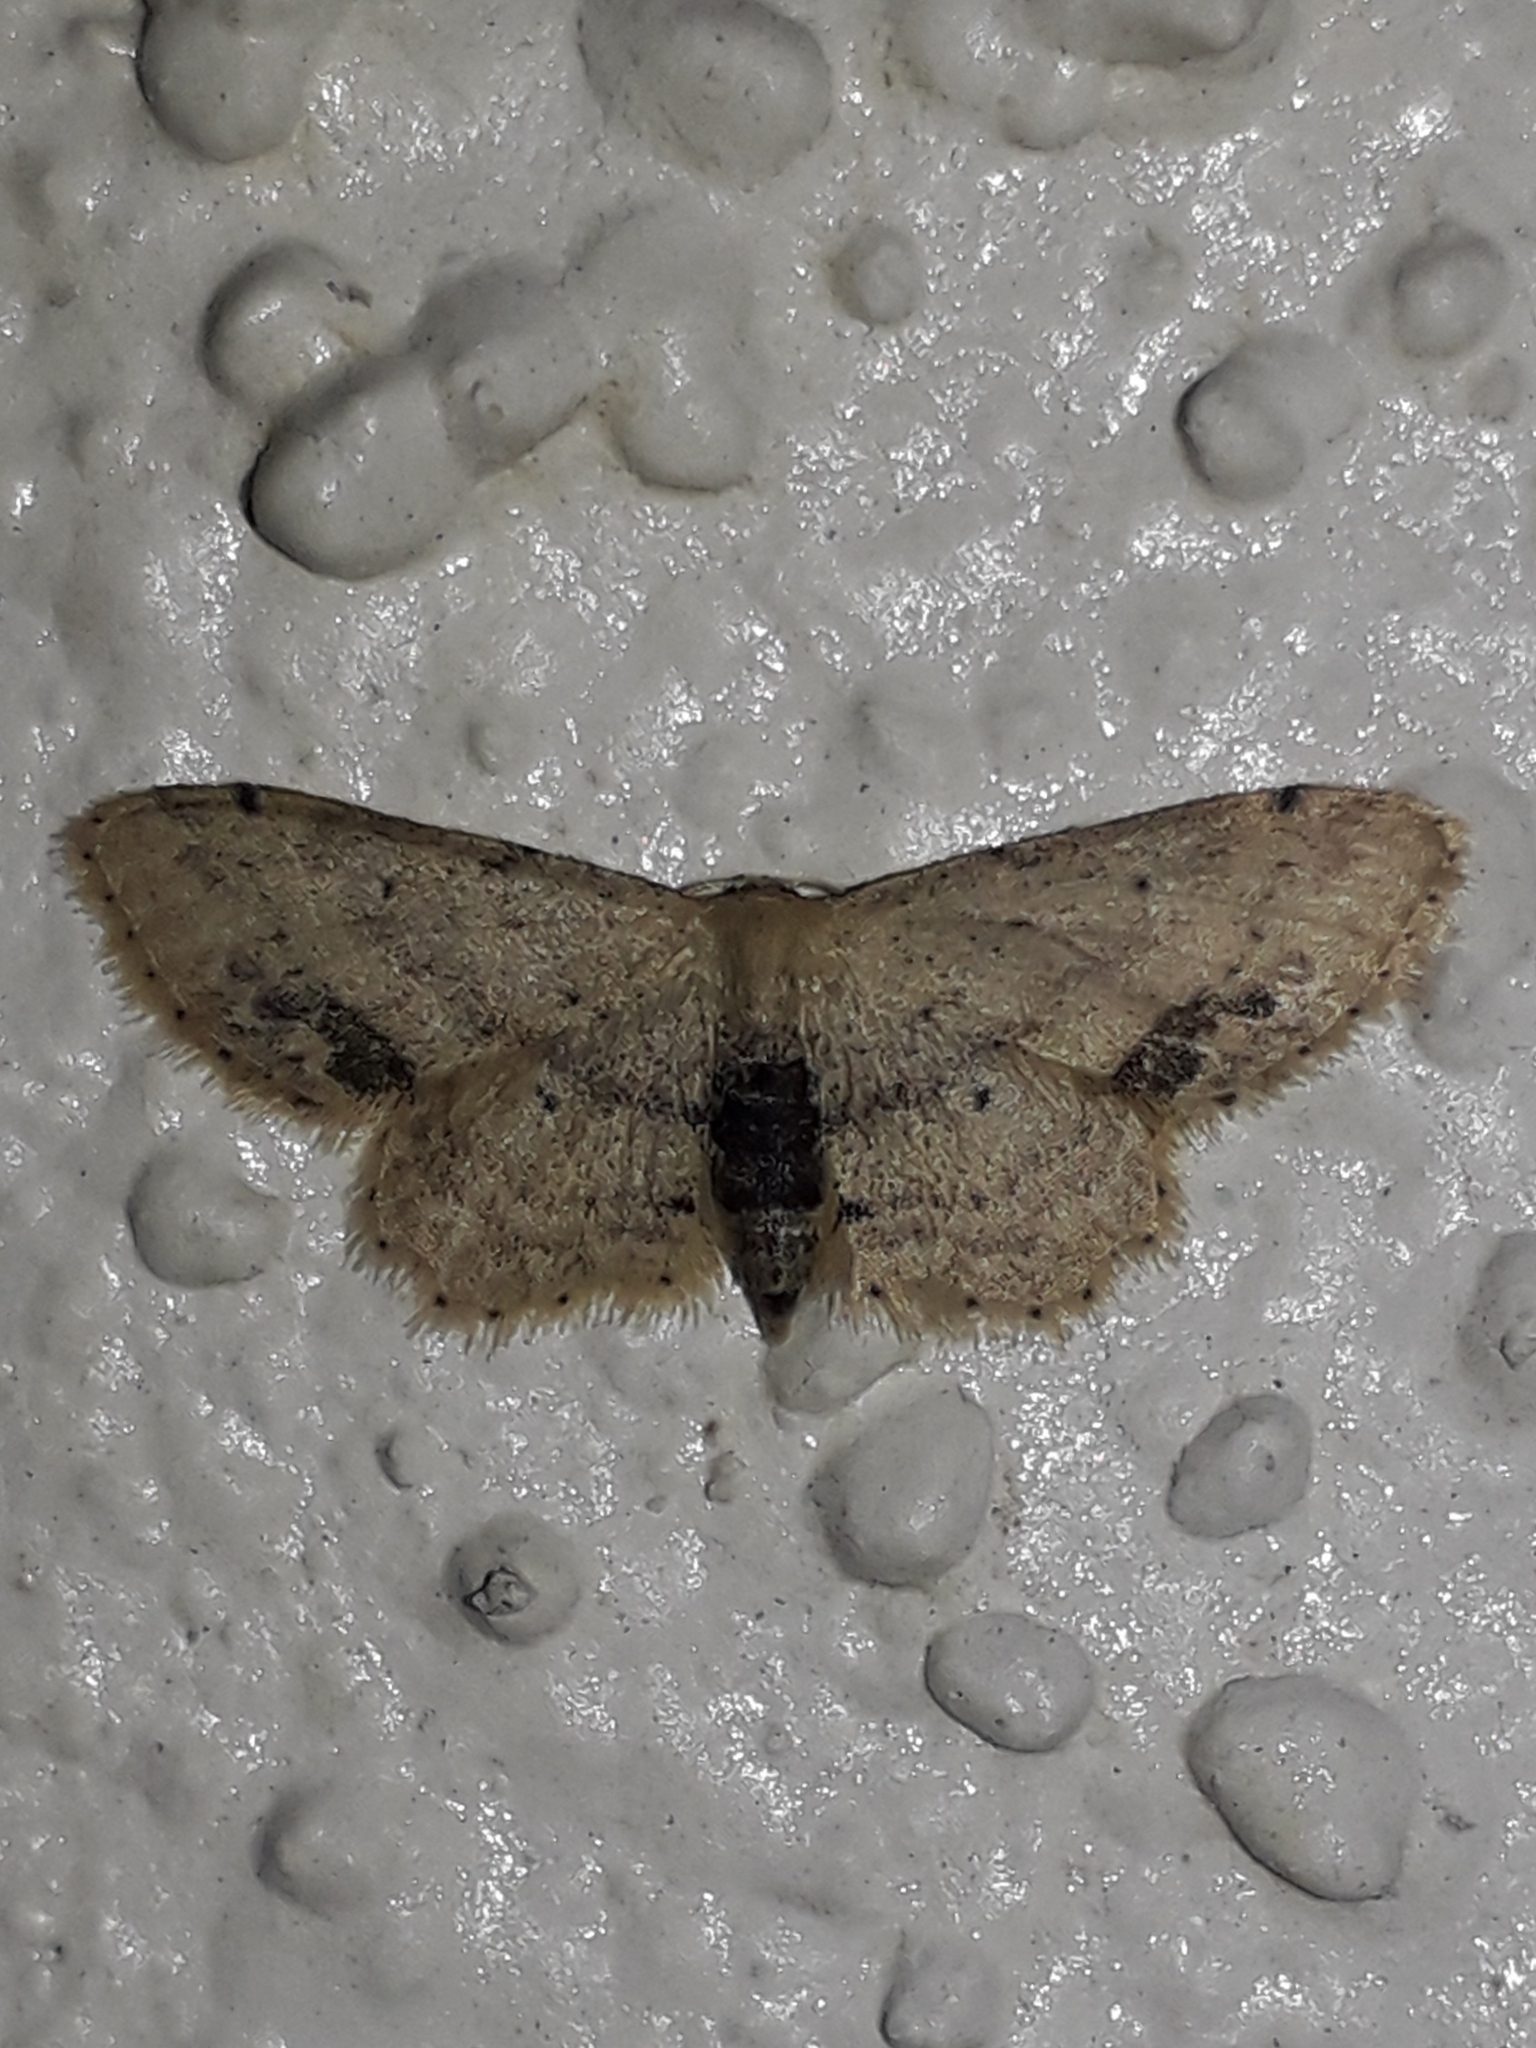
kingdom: Animalia
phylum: Arthropoda
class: Insecta
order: Lepidoptera
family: Geometridae
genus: Idaea
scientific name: Idaea dimidiata
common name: Single-dotted wave
